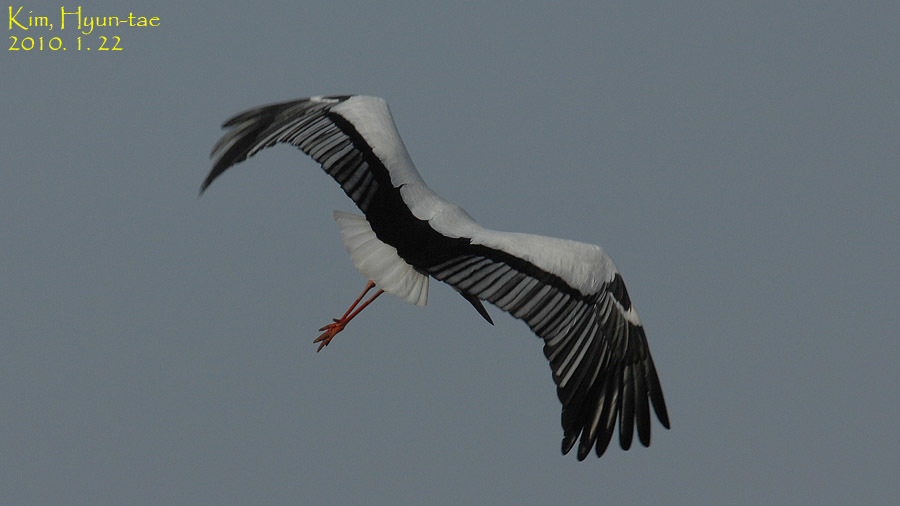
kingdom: Animalia
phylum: Chordata
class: Aves
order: Ciconiiformes
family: Ciconiidae
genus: Ciconia
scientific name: Ciconia boyciana
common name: Oriental stork
